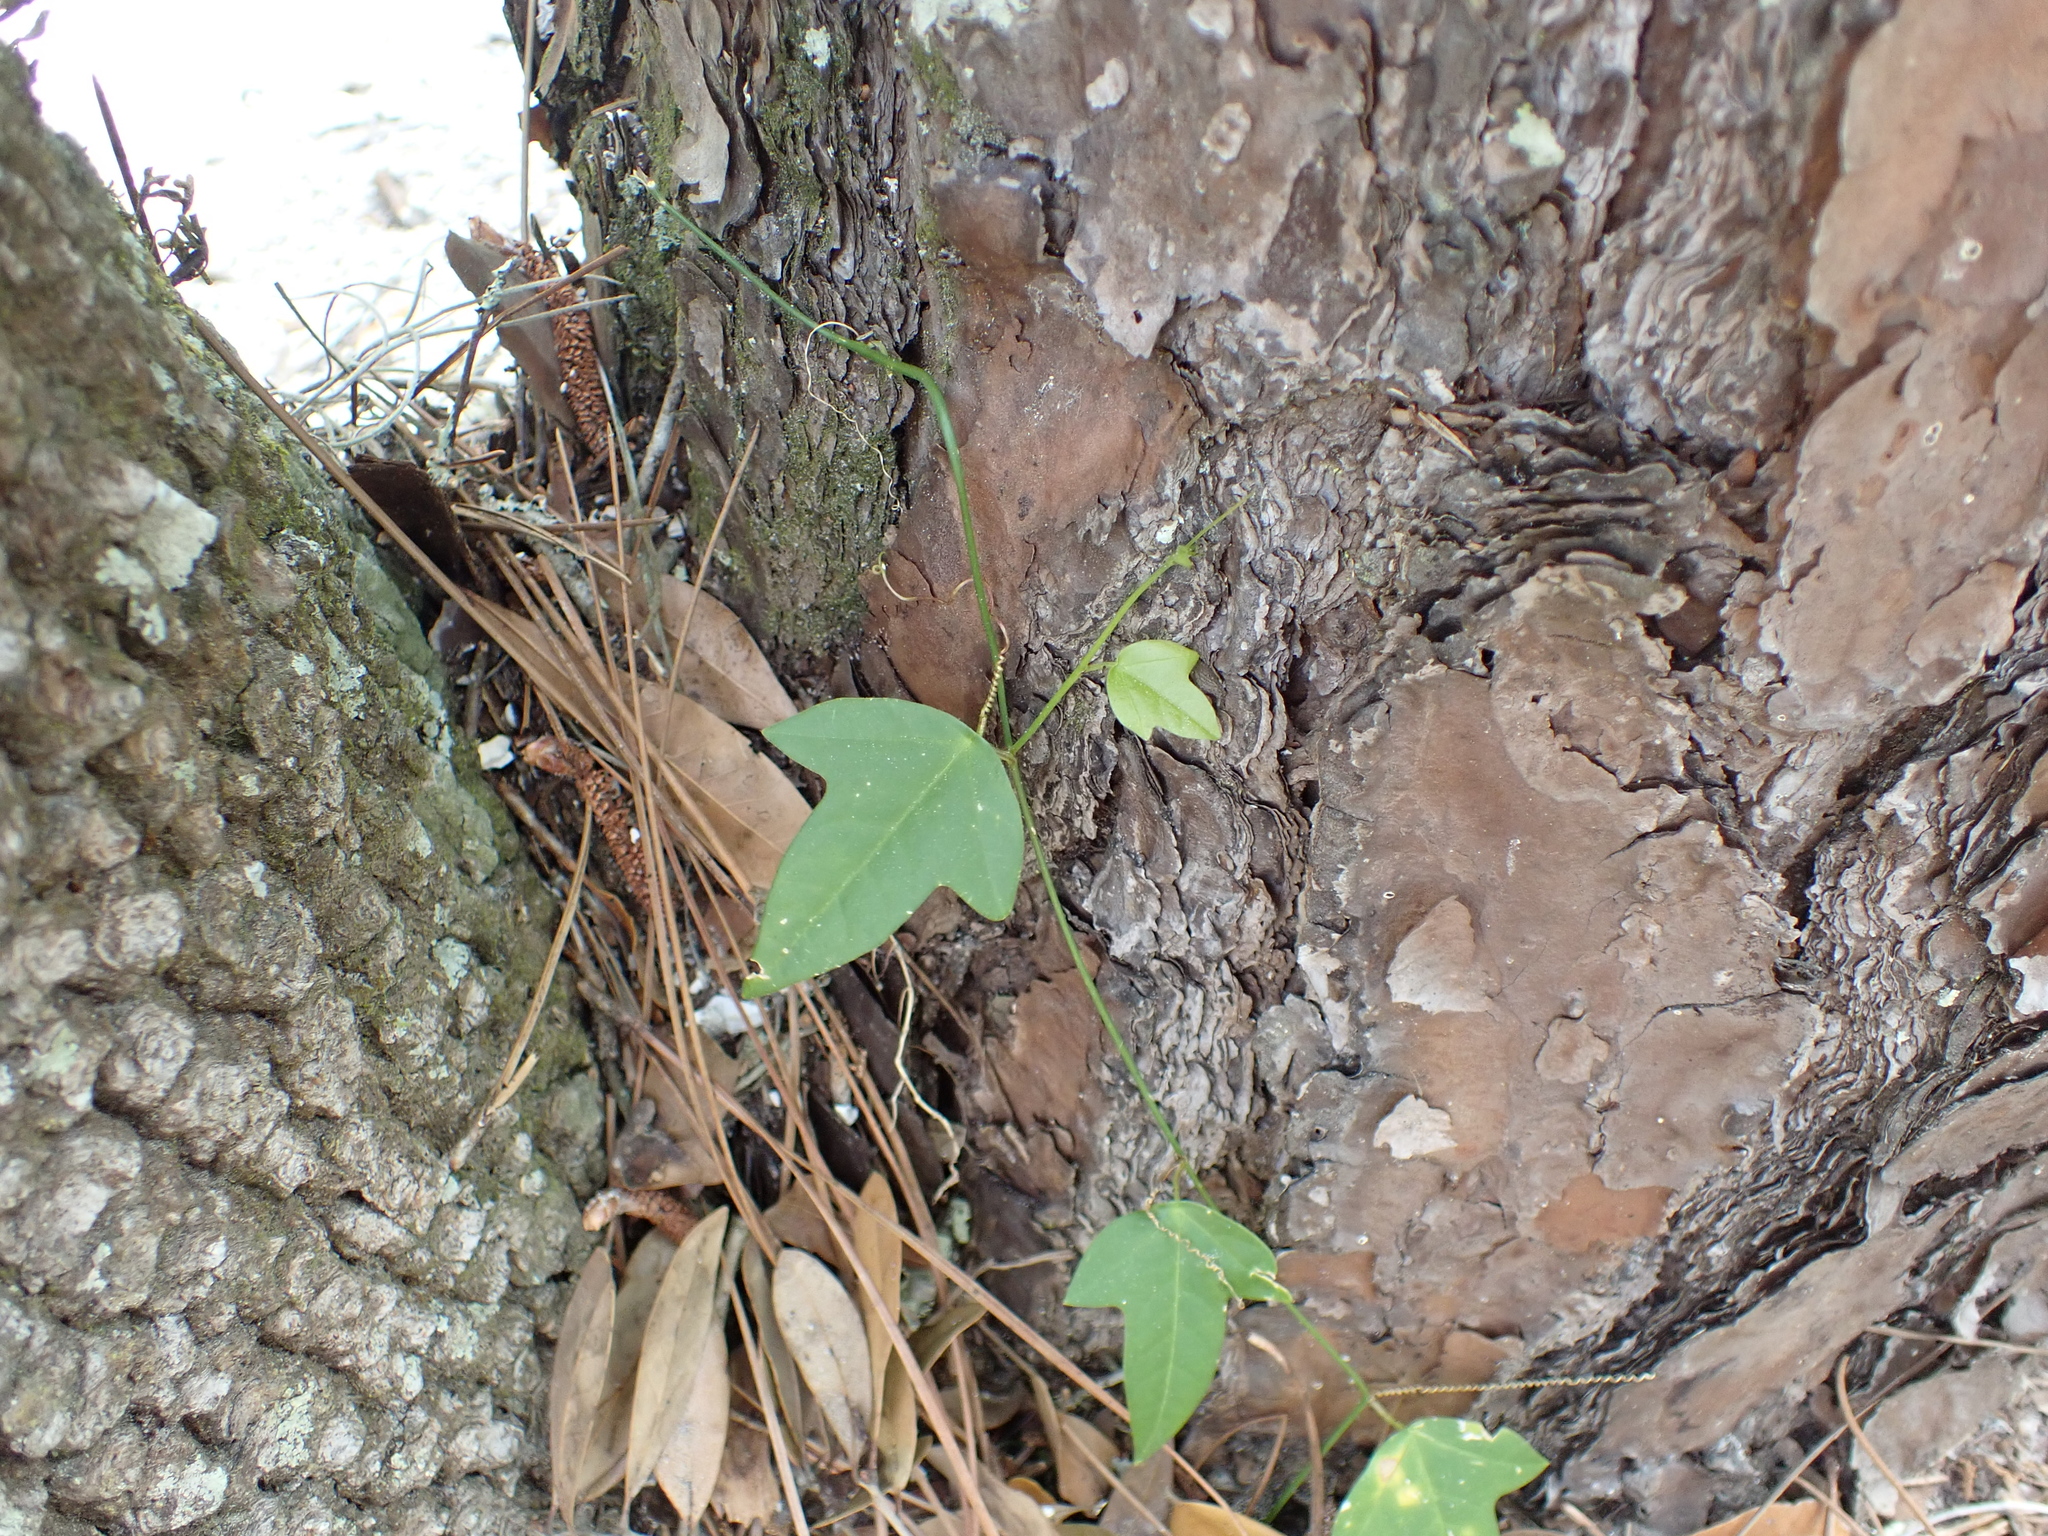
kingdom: Plantae
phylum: Tracheophyta
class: Magnoliopsida
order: Malpighiales
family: Passifloraceae
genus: Passiflora
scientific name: Passiflora pallida
